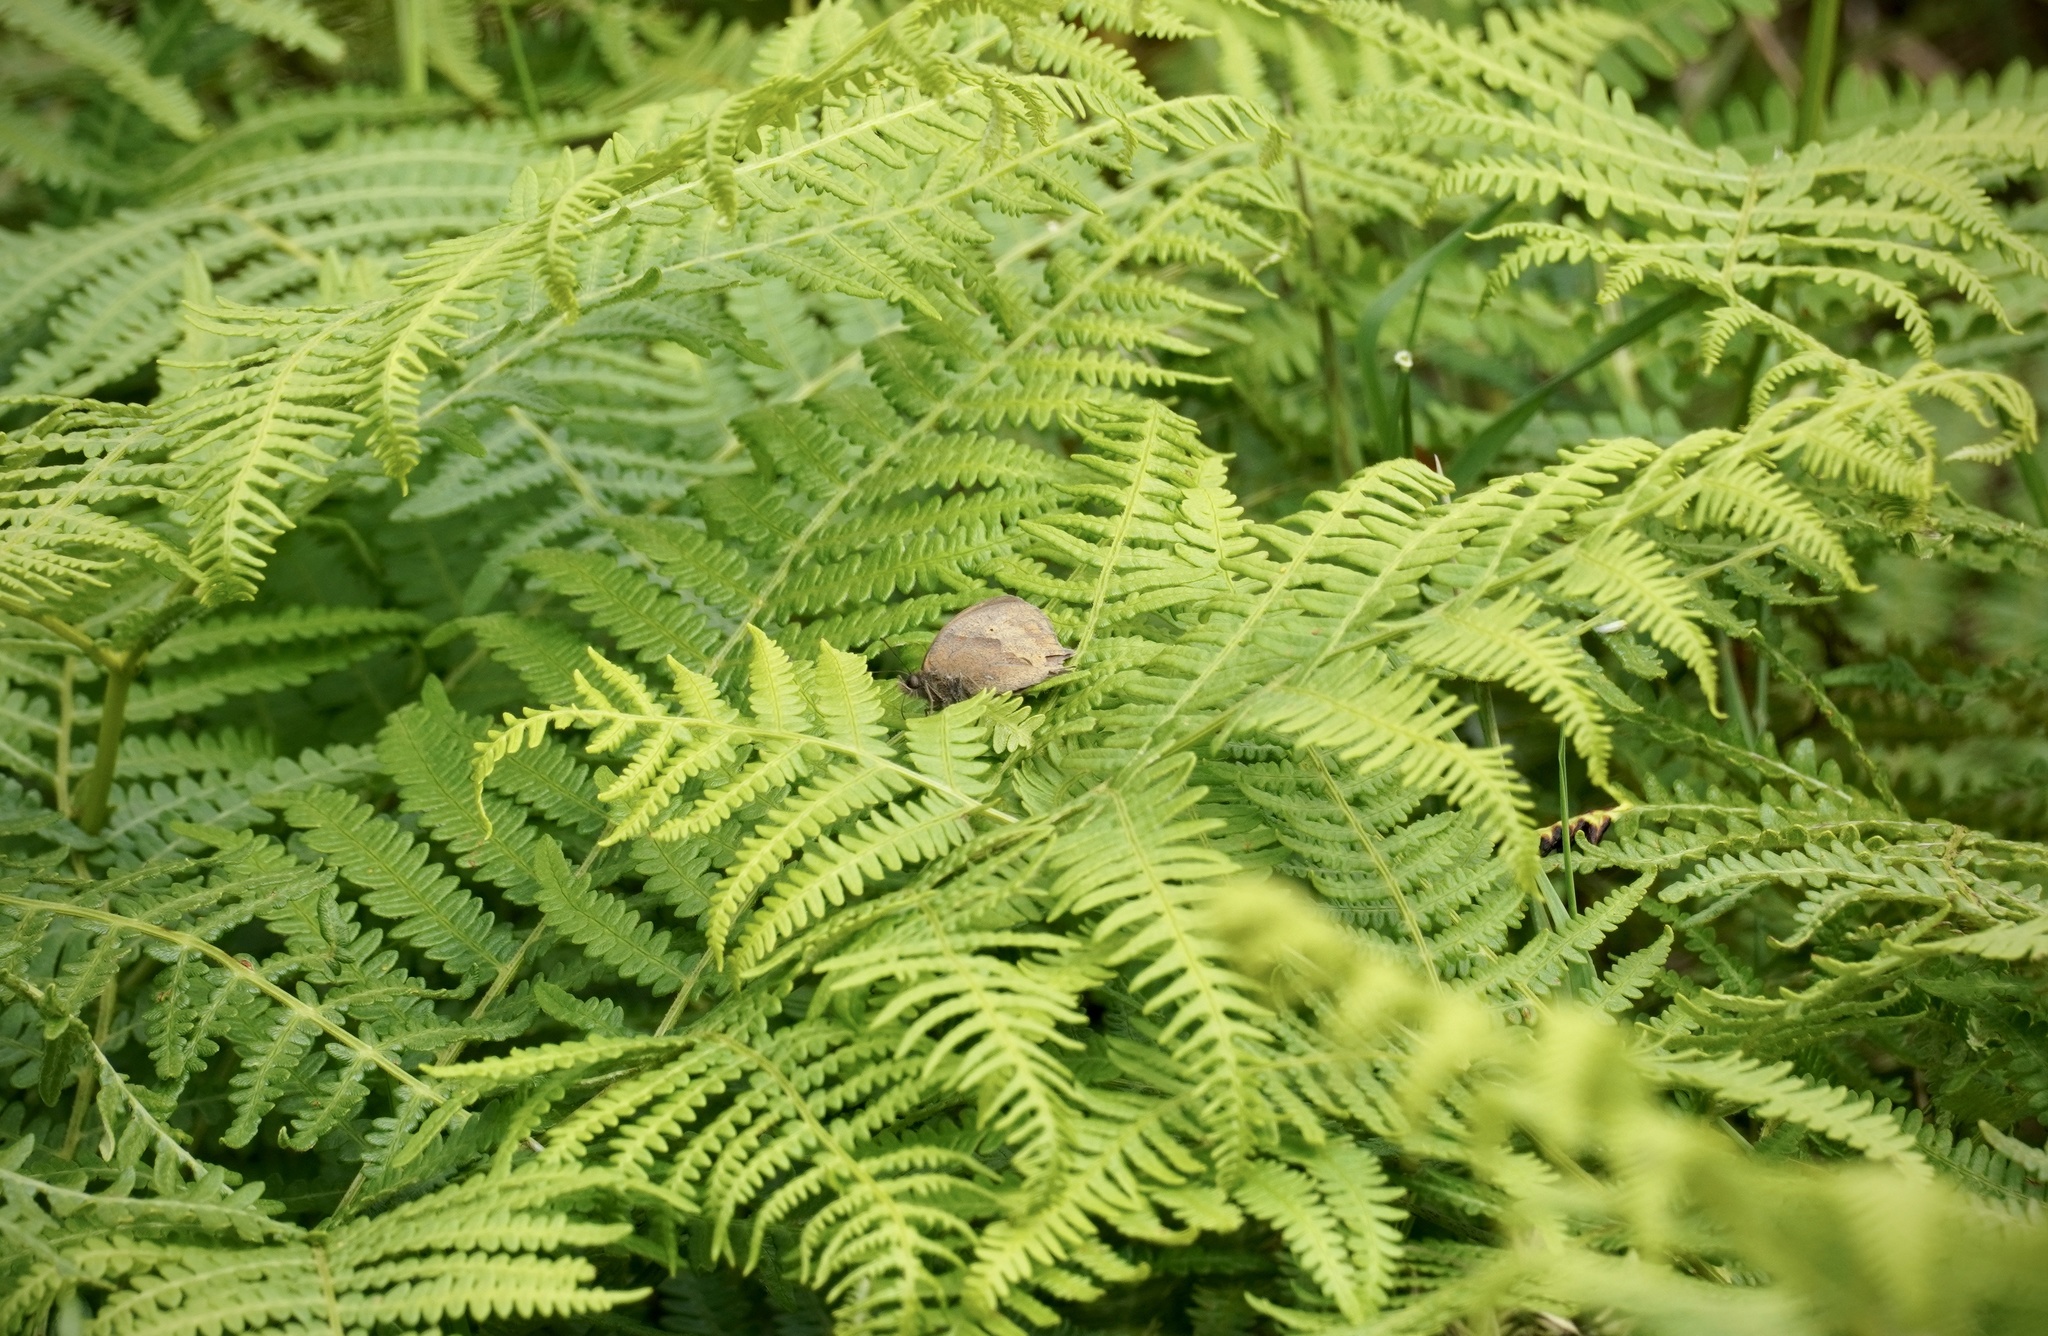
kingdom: Animalia
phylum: Arthropoda
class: Insecta
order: Lepidoptera
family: Nymphalidae
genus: Maniola
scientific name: Maniola jurtina
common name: Meadow brown
